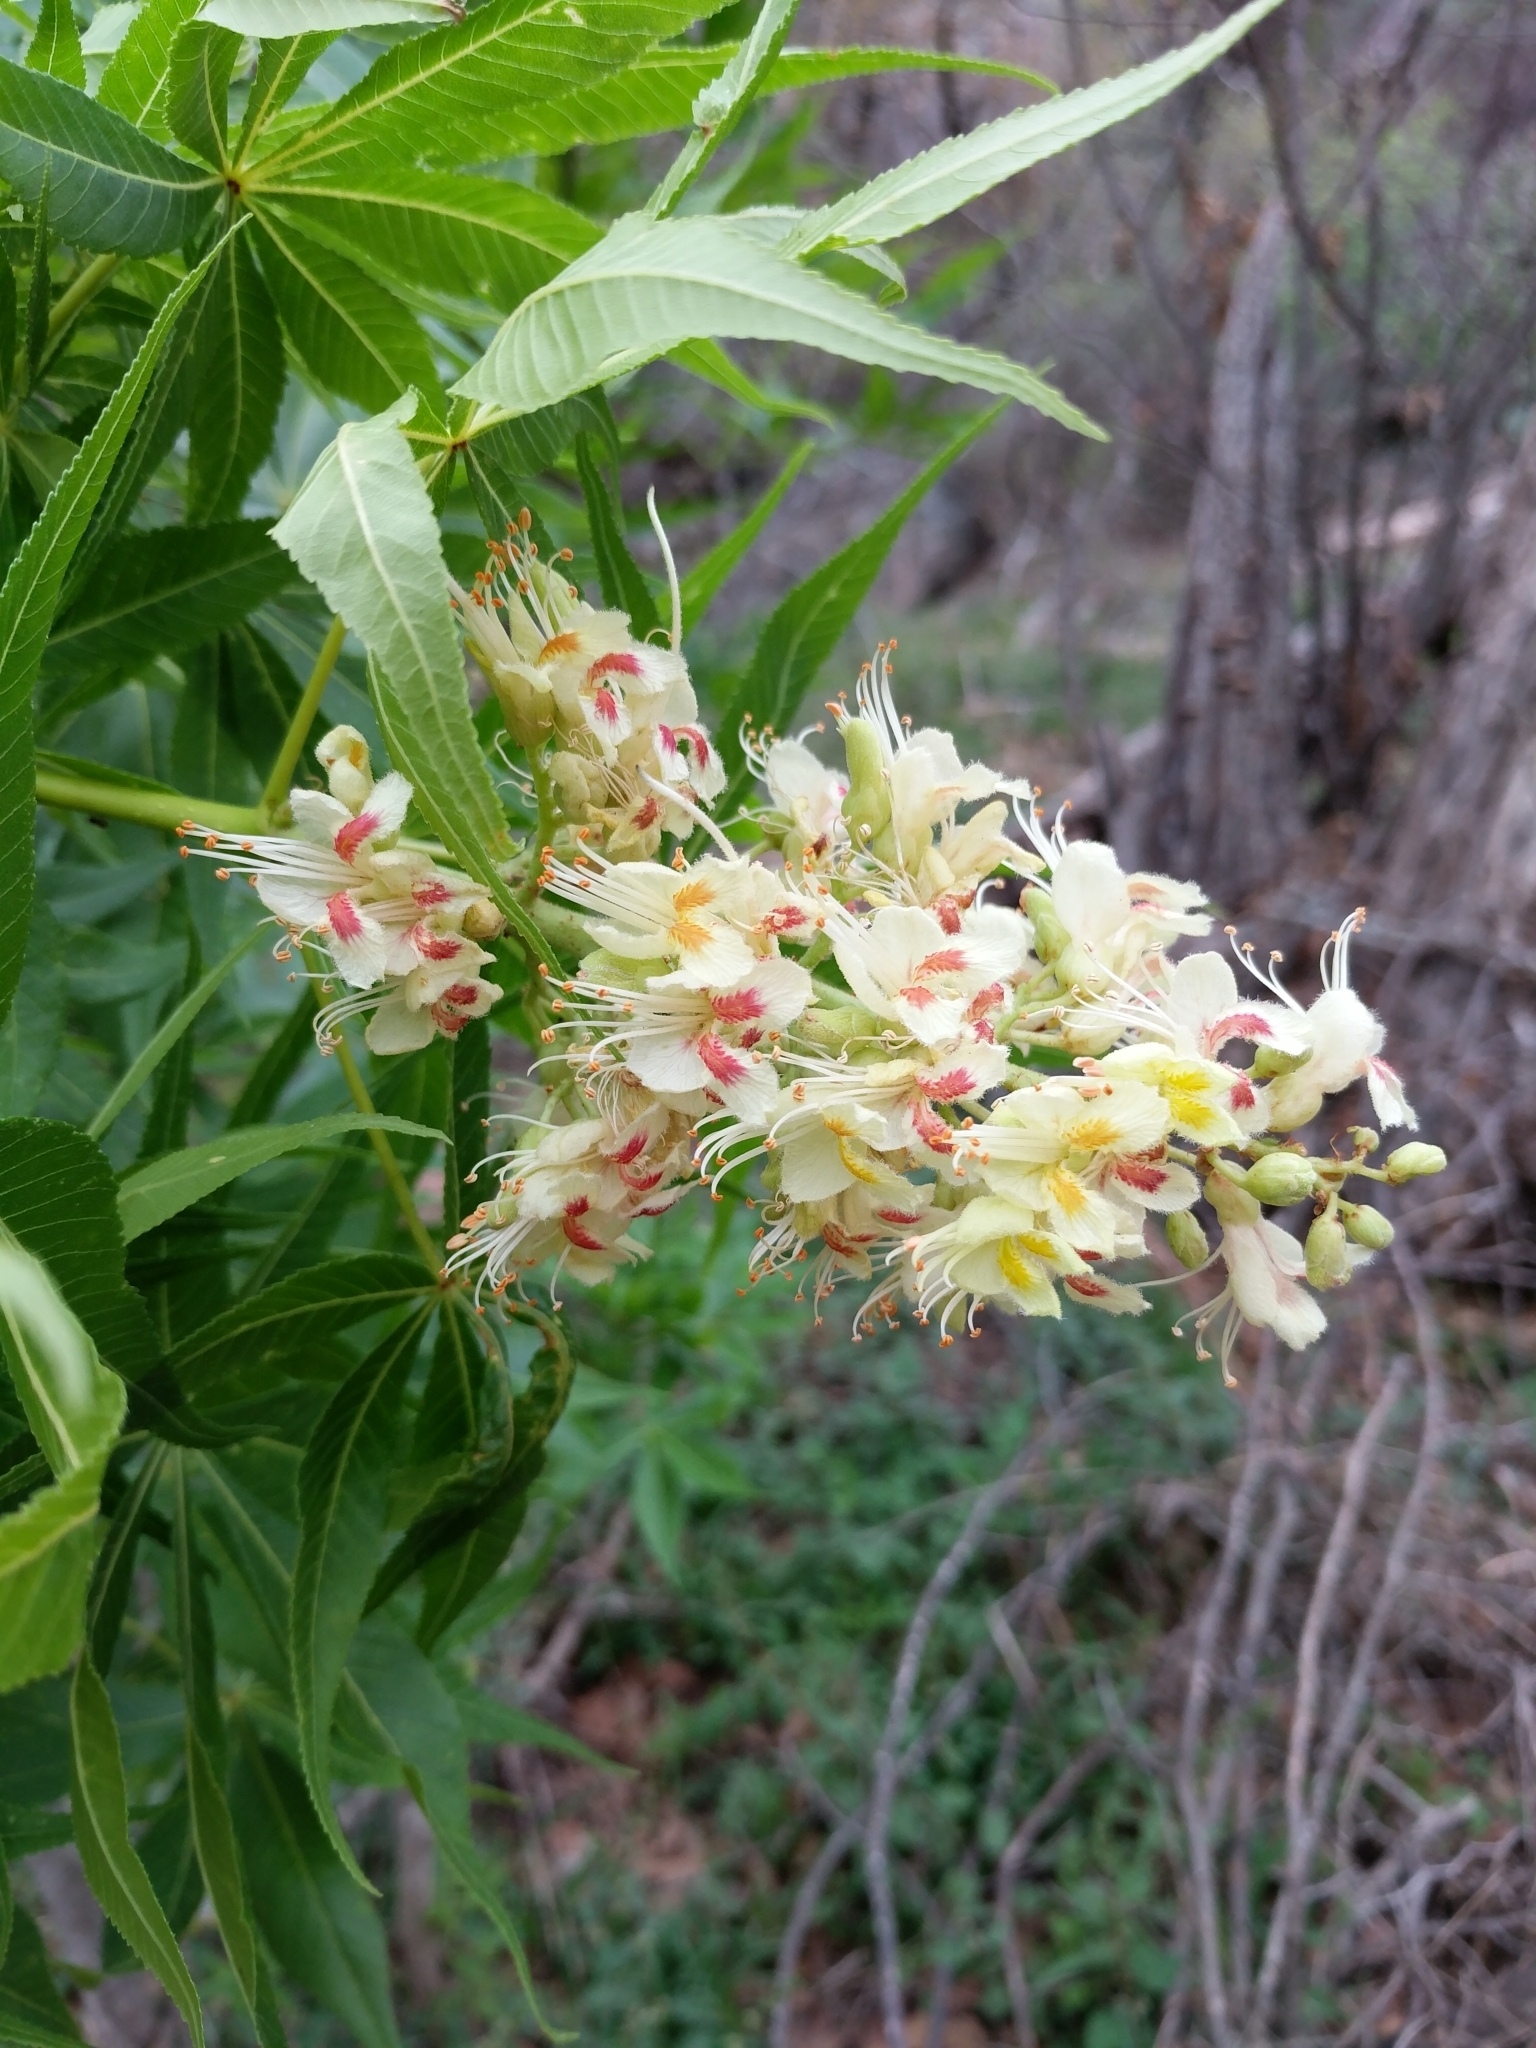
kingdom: Plantae
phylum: Tracheophyta
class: Magnoliopsida
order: Sapindales
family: Sapindaceae
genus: Aesculus
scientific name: Aesculus glabra
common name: Ohio buckeye
